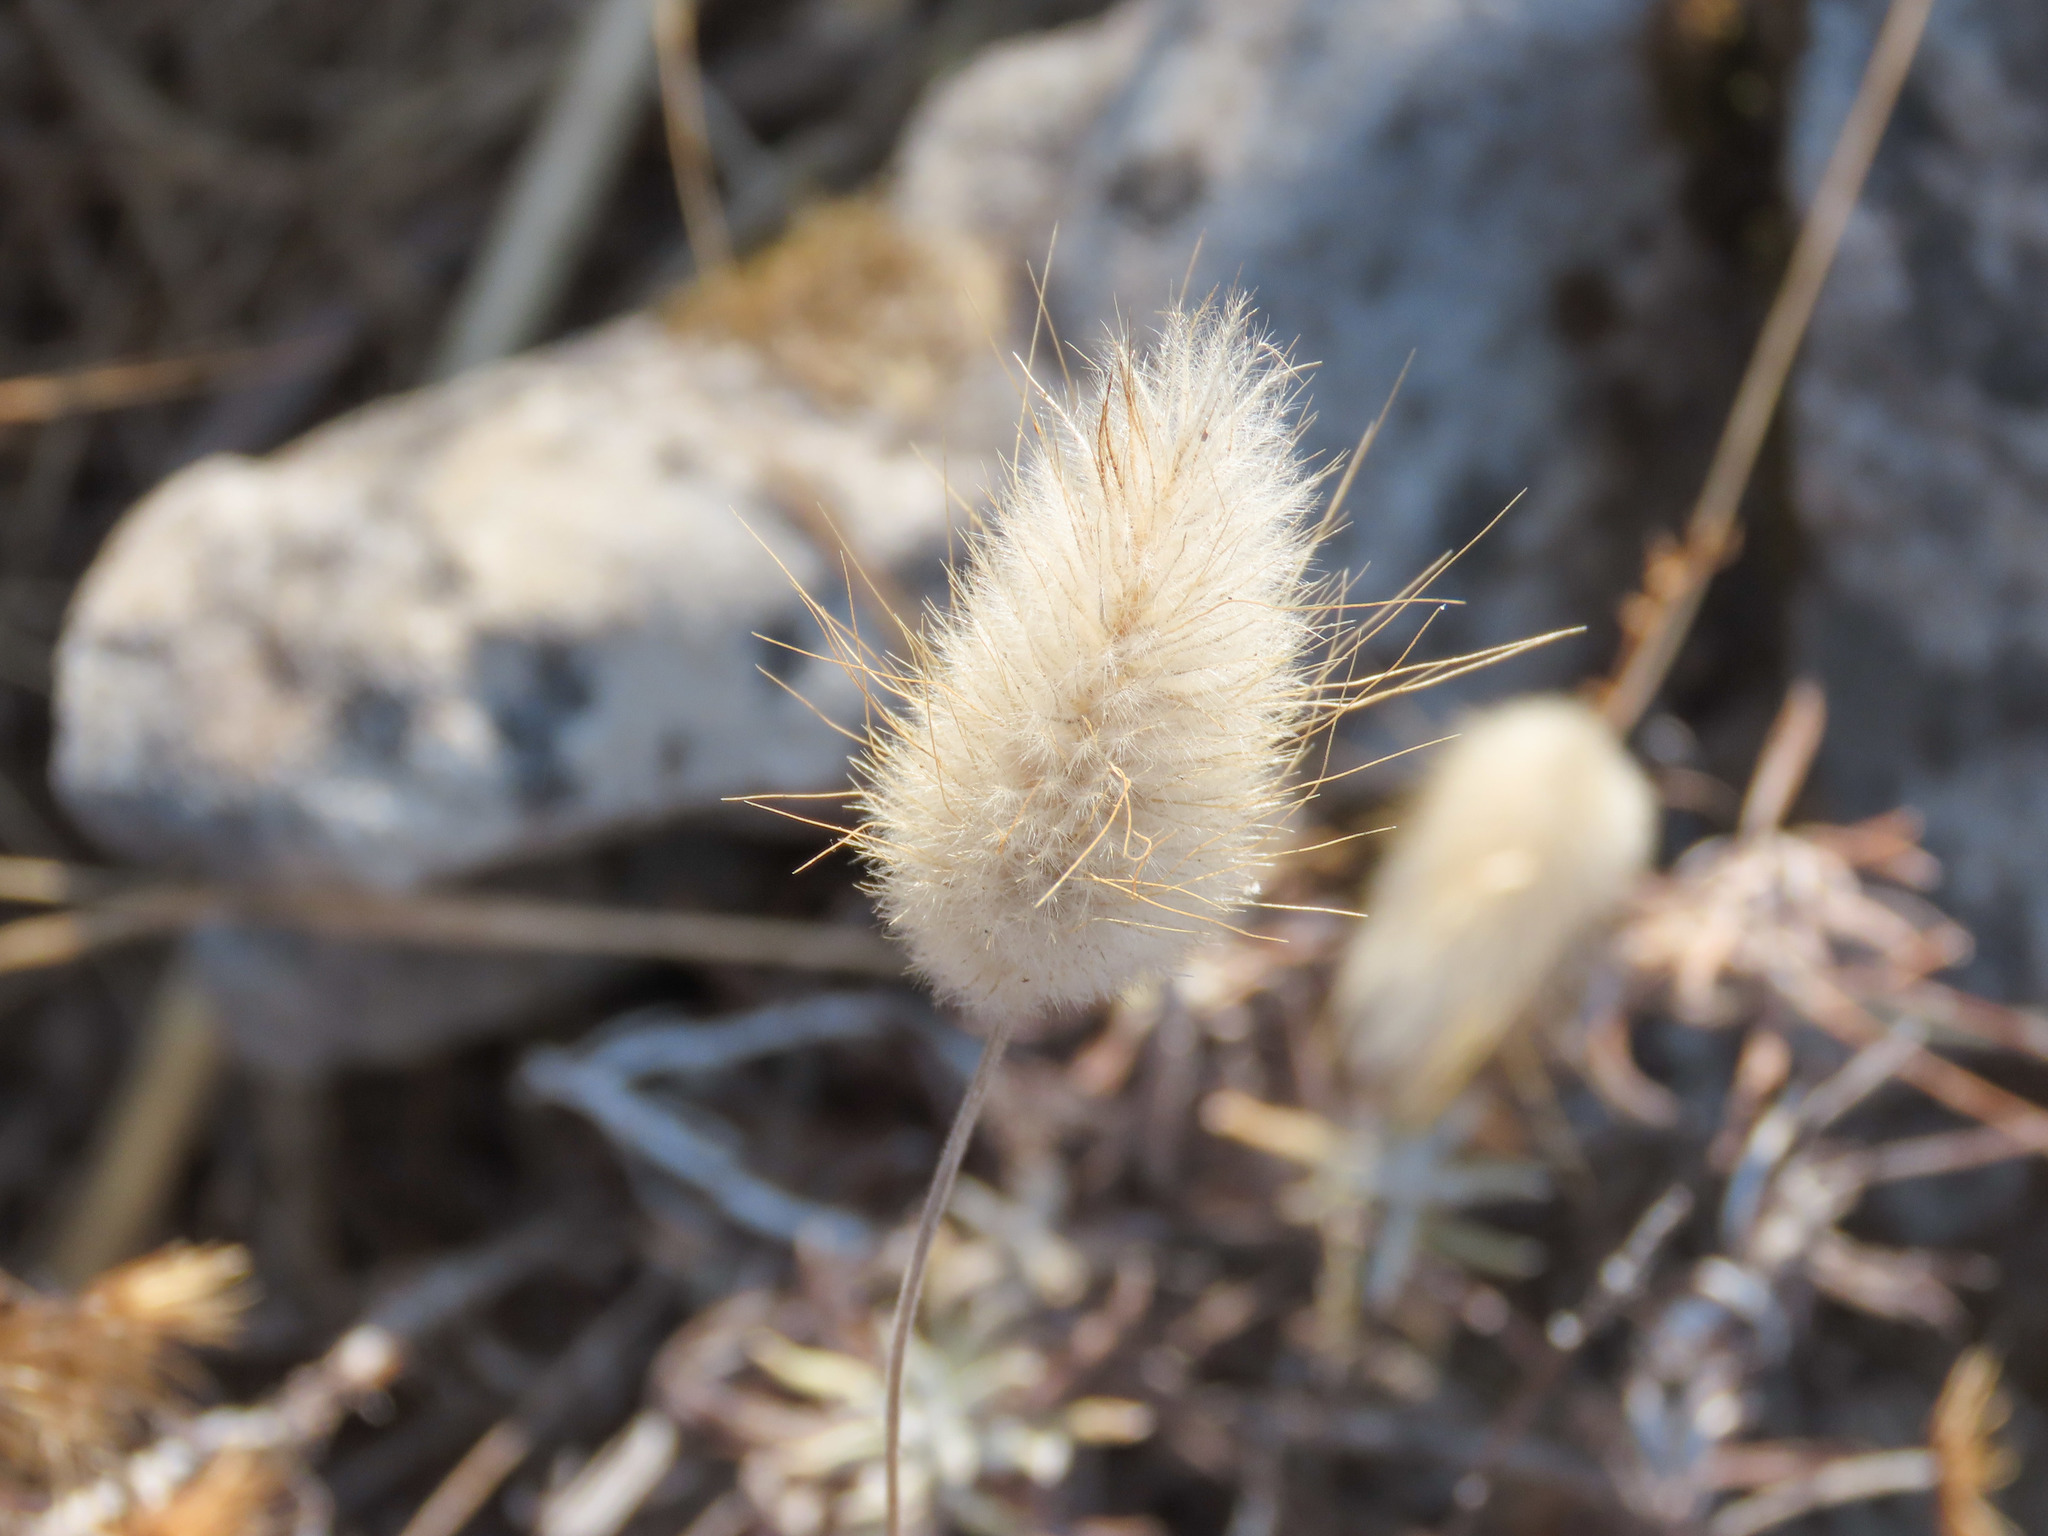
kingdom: Plantae
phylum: Tracheophyta
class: Liliopsida
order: Poales
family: Poaceae
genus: Lagurus
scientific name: Lagurus ovatus
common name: Hare's-tail
